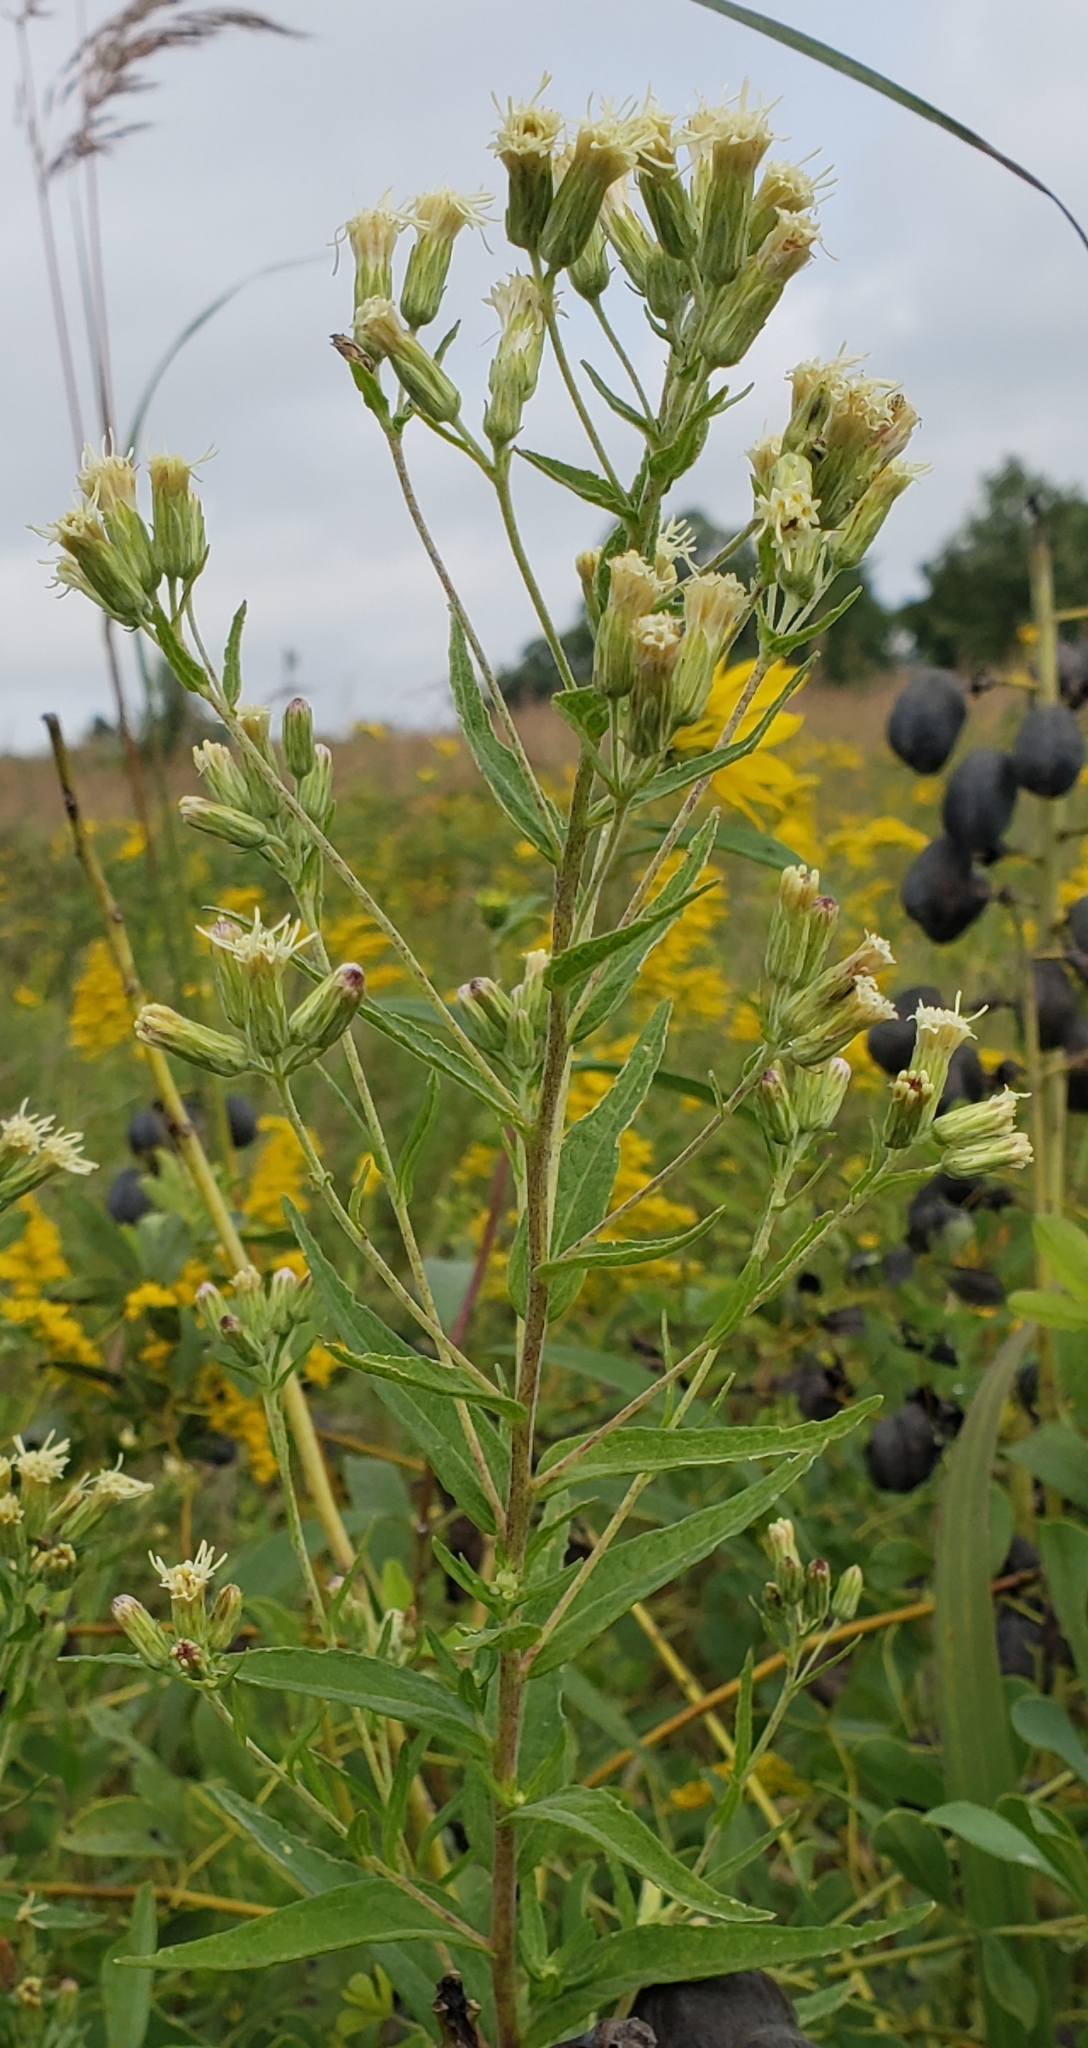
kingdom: Plantae
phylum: Tracheophyta
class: Magnoliopsida
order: Asterales
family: Asteraceae
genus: Brickellia
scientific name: Brickellia eupatorioides
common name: False boneset
